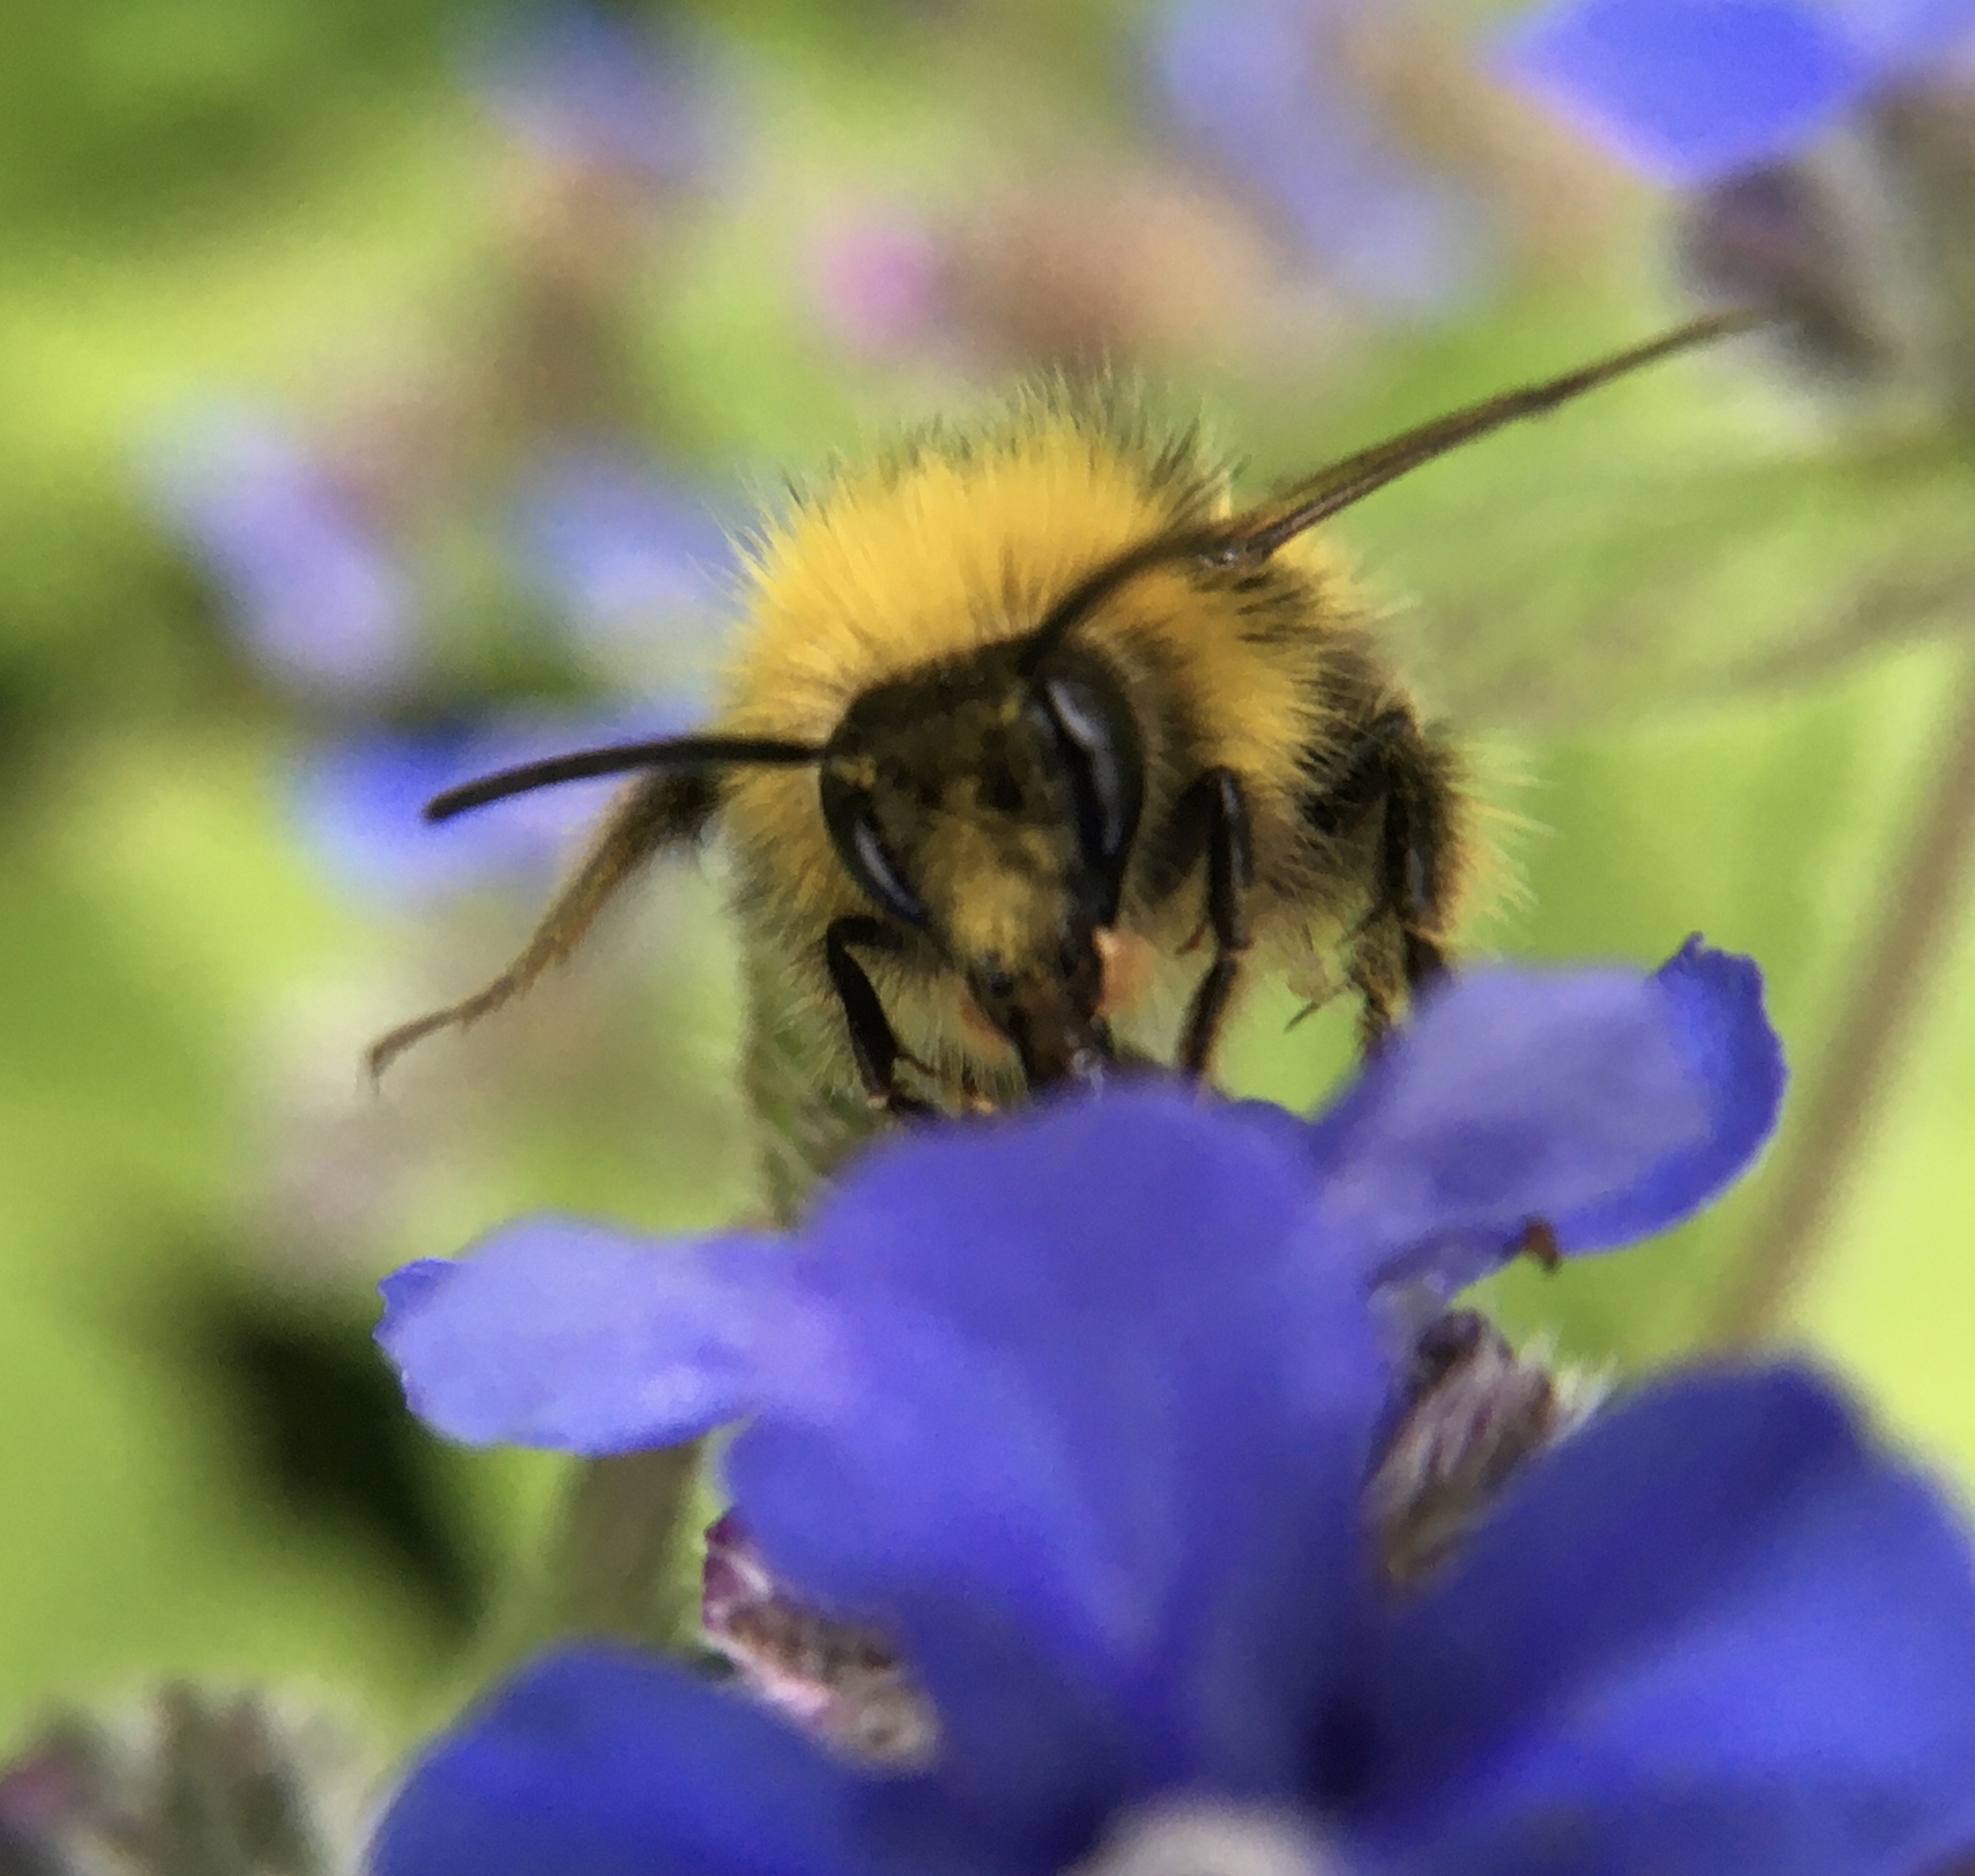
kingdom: Animalia
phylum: Arthropoda
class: Insecta
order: Hymenoptera
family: Apidae
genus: Bombus
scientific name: Bombus pratorum
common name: Early humble-bee
